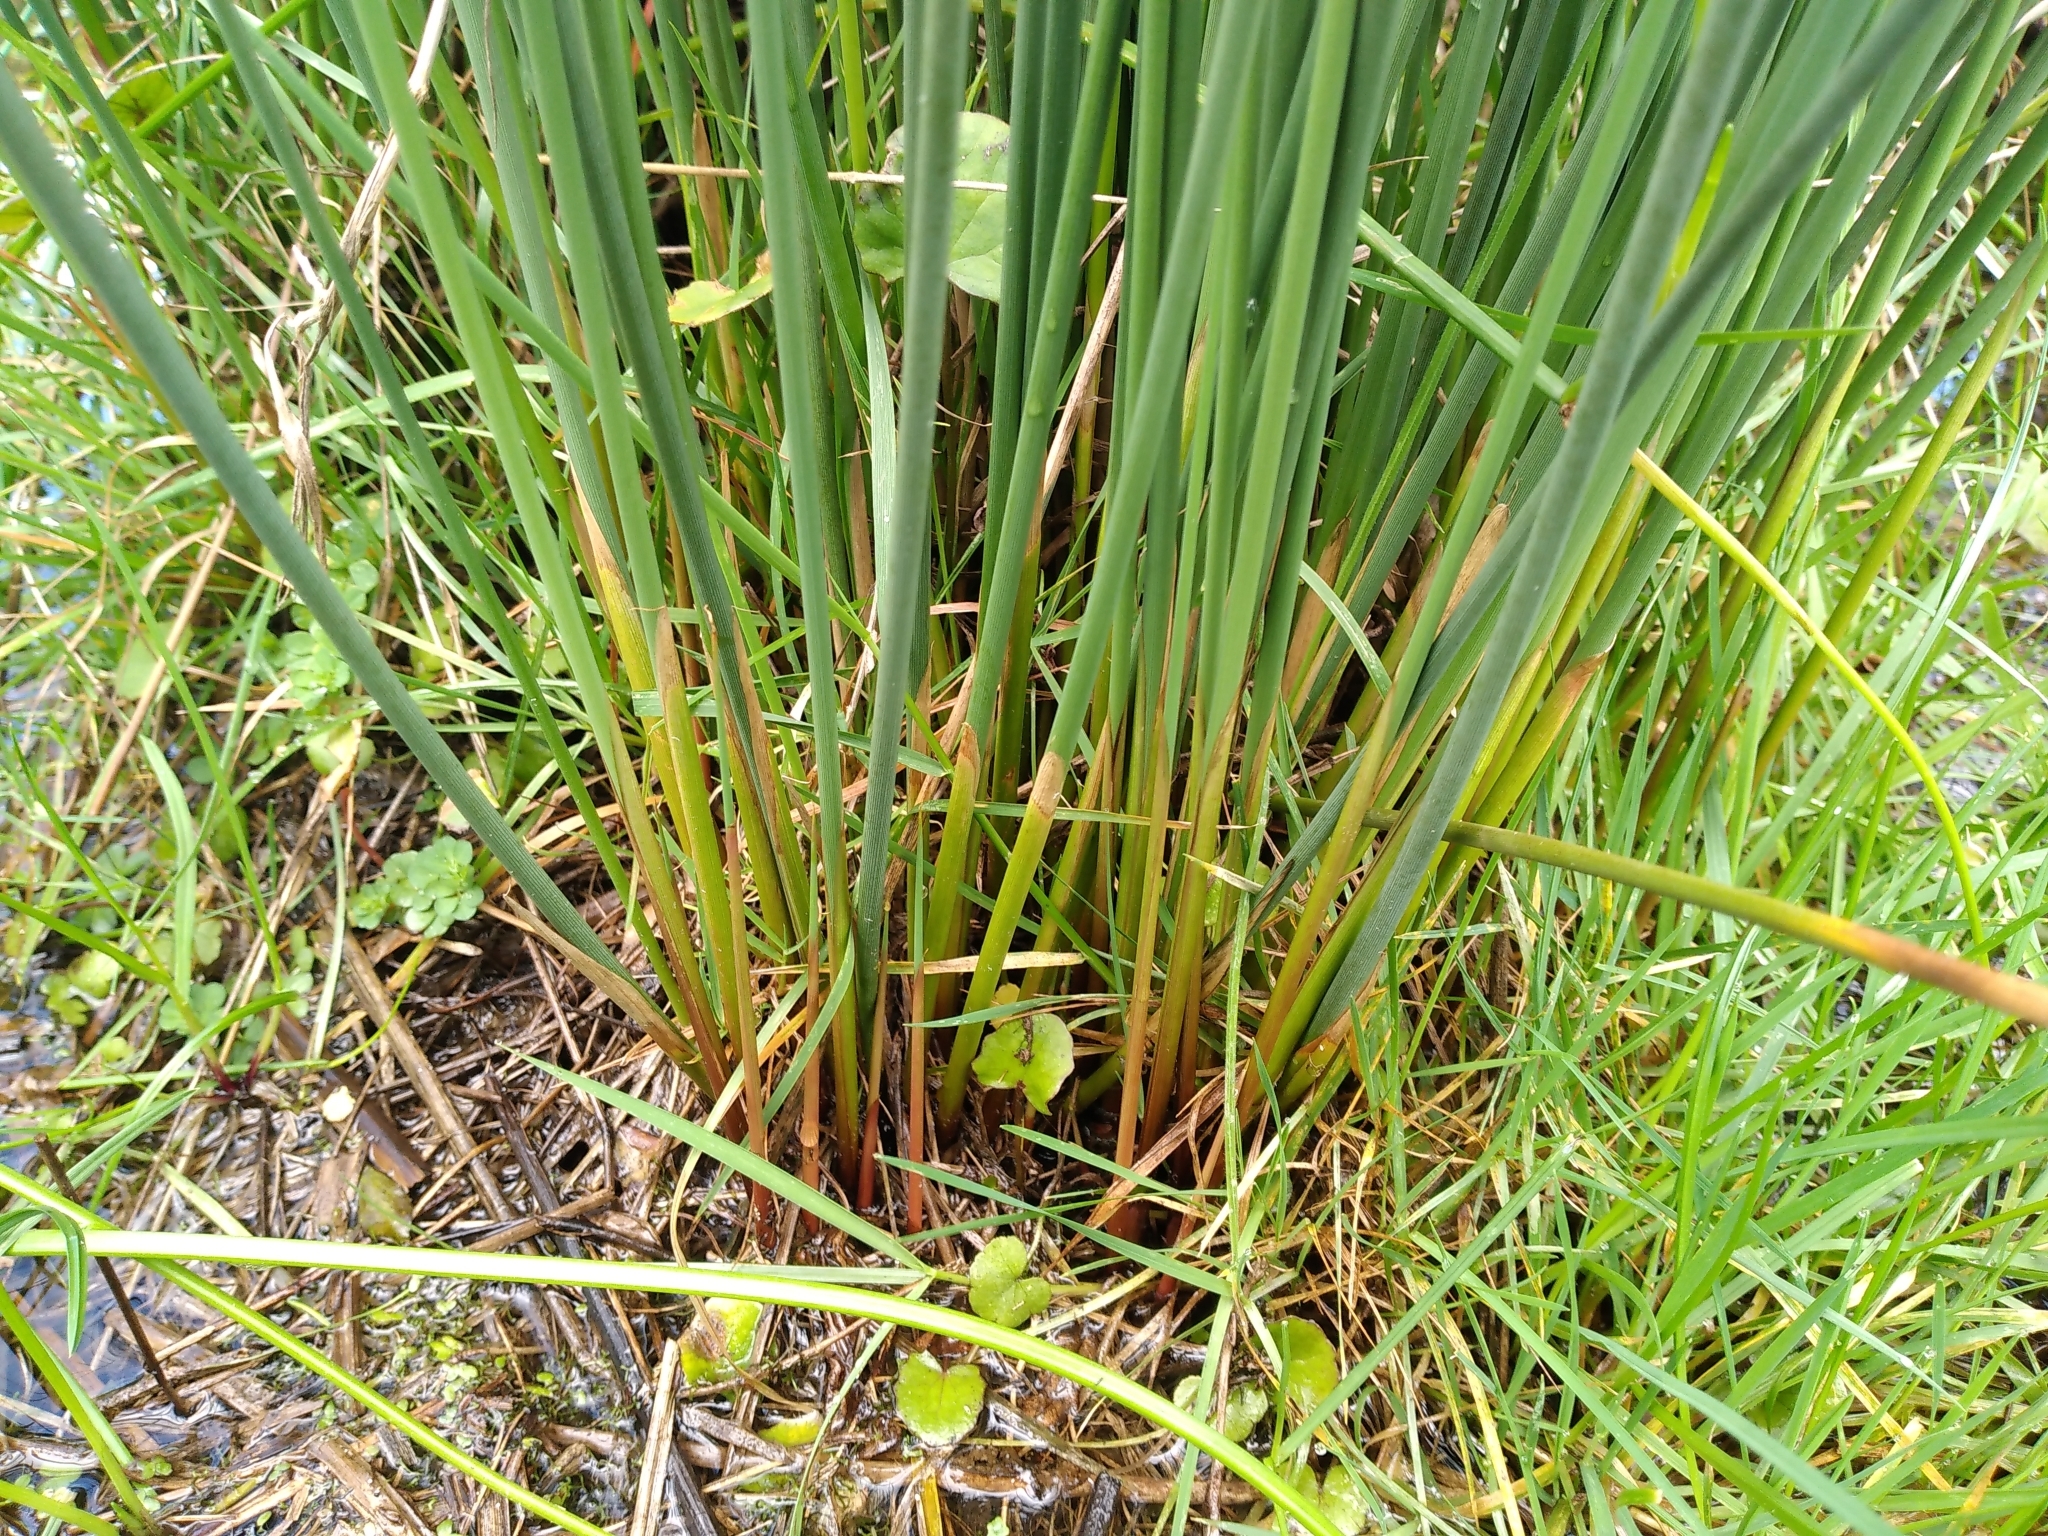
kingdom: Plantae
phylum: Tracheophyta
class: Liliopsida
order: Poales
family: Juncaceae
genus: Juncus
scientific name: Juncus australis
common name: Austral rush
